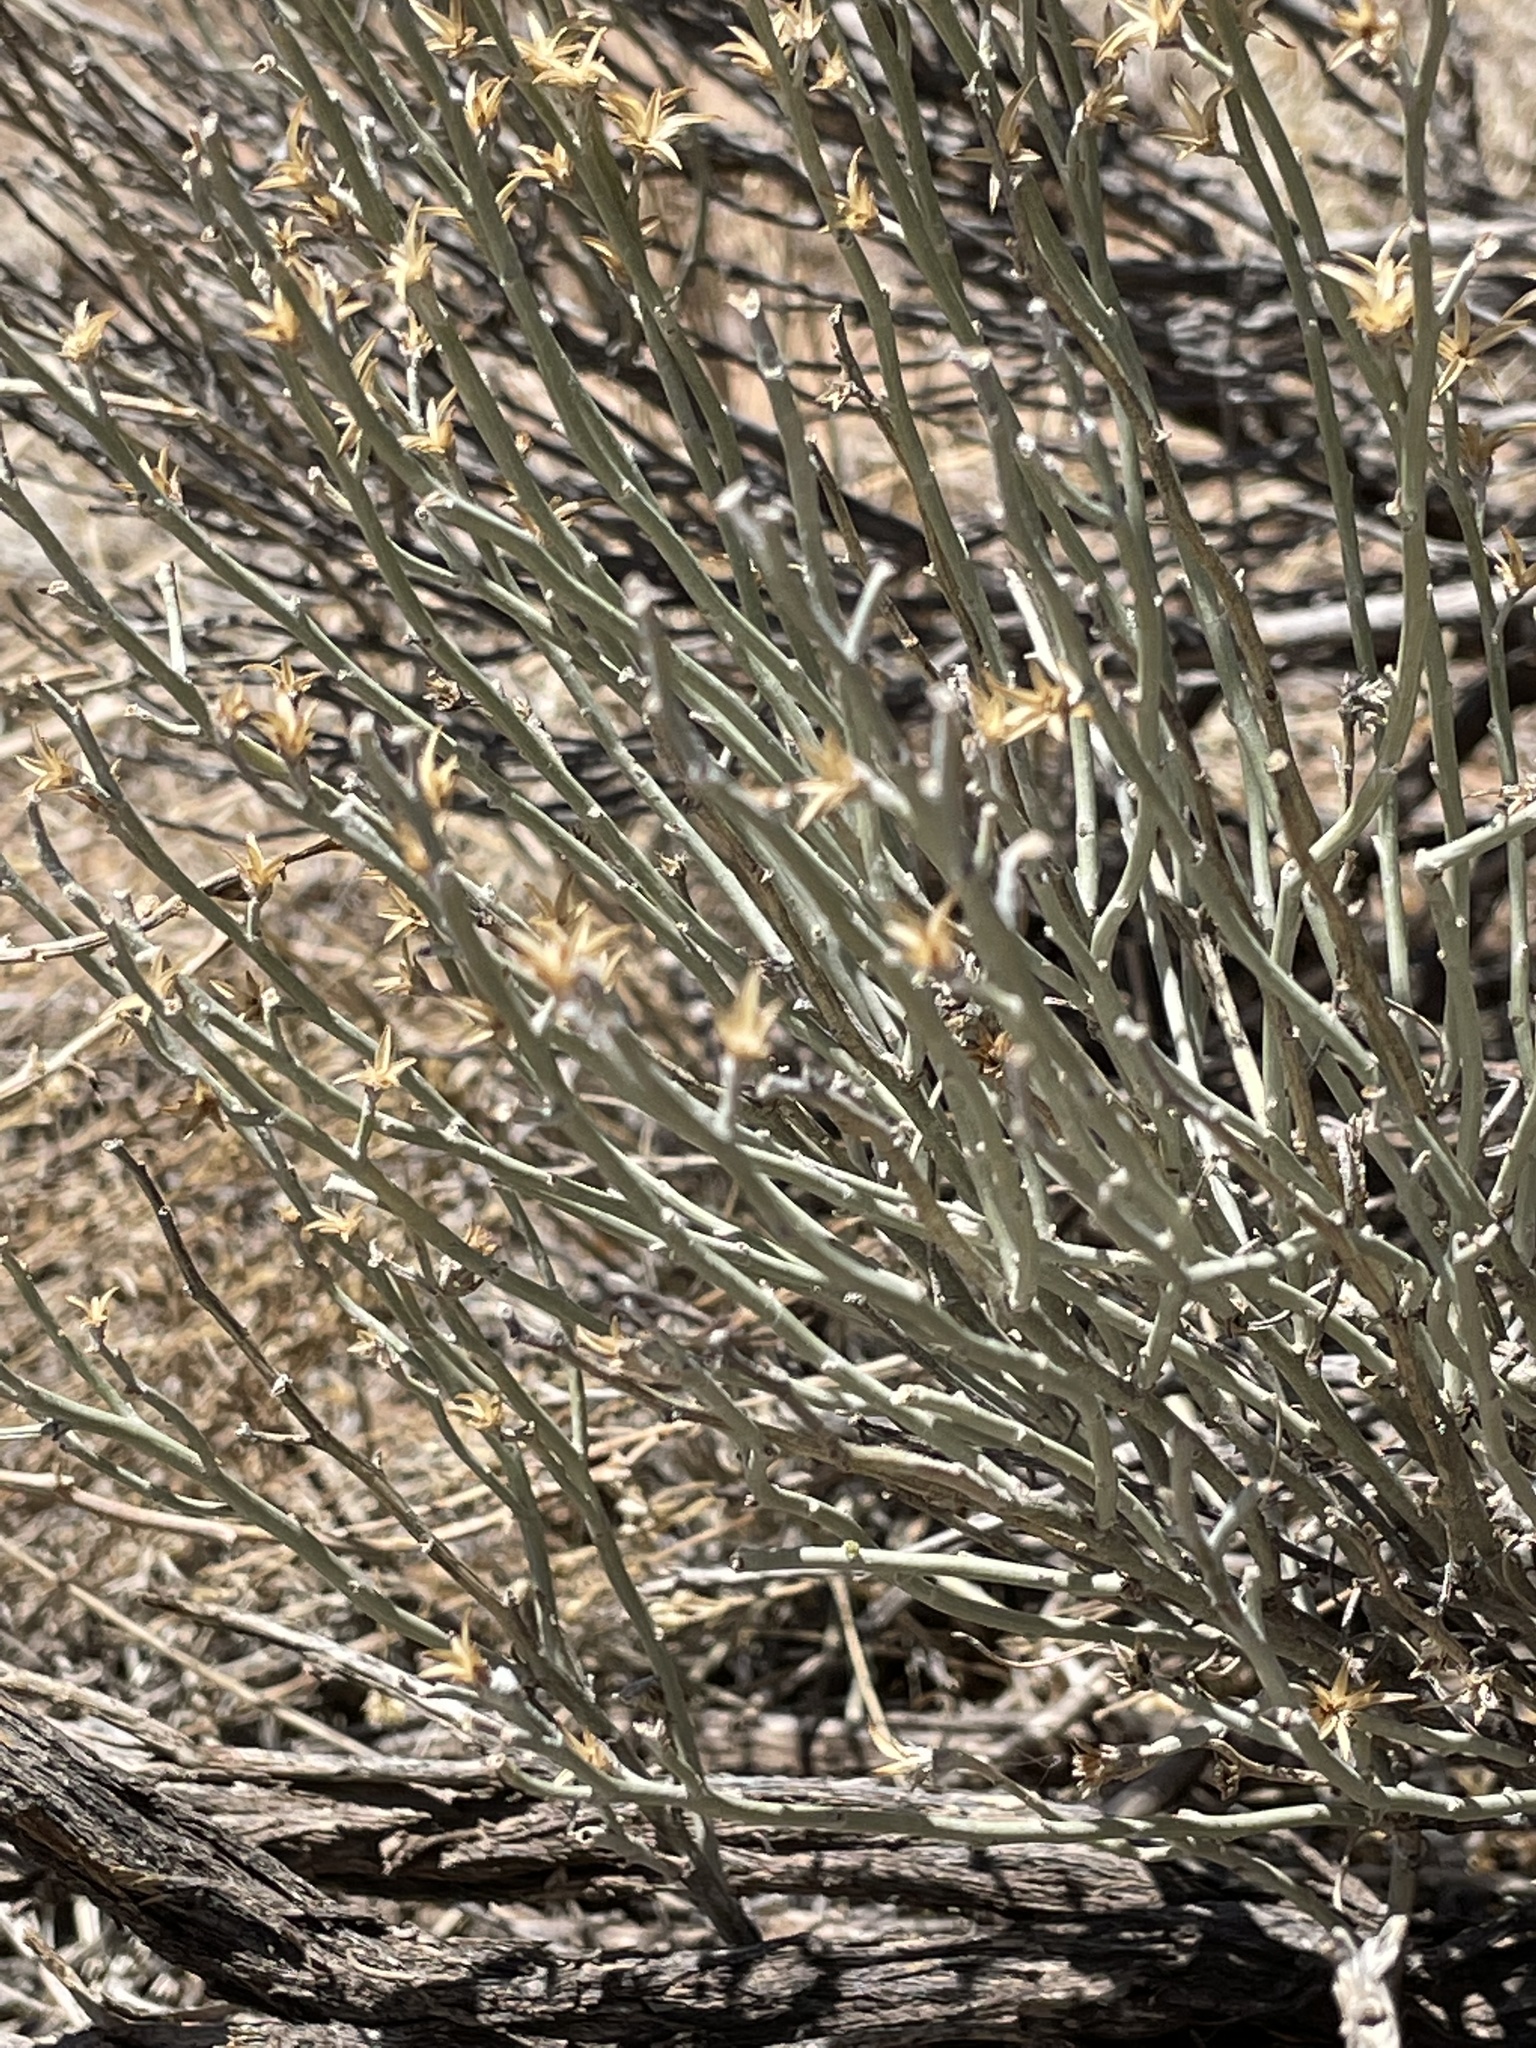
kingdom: Plantae
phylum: Tracheophyta
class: Magnoliopsida
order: Asterales
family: Asteraceae
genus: Ericameria
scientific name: Ericameria nauseosa
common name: Rubber rabbitbrush
